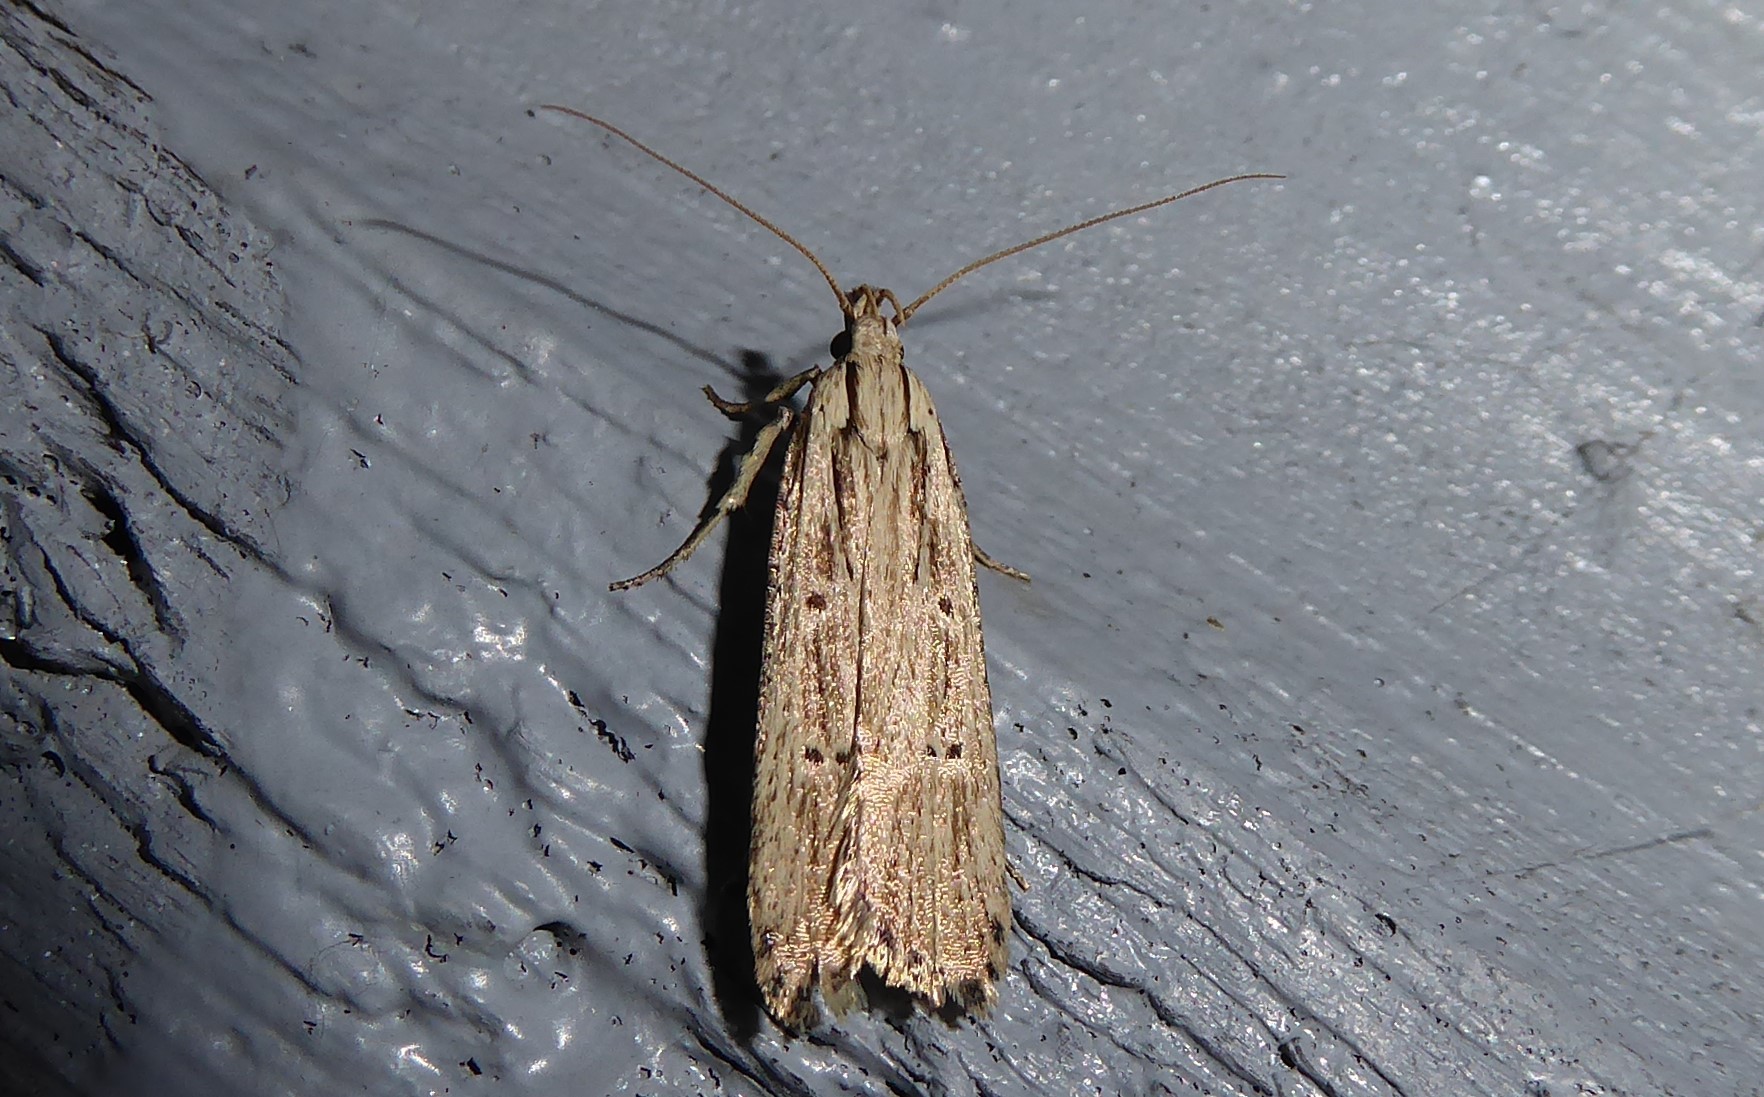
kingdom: Animalia
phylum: Arthropoda
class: Insecta
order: Lepidoptera
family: Gelechiidae
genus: Anisoplaca
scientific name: Anisoplaca ptyoptera
